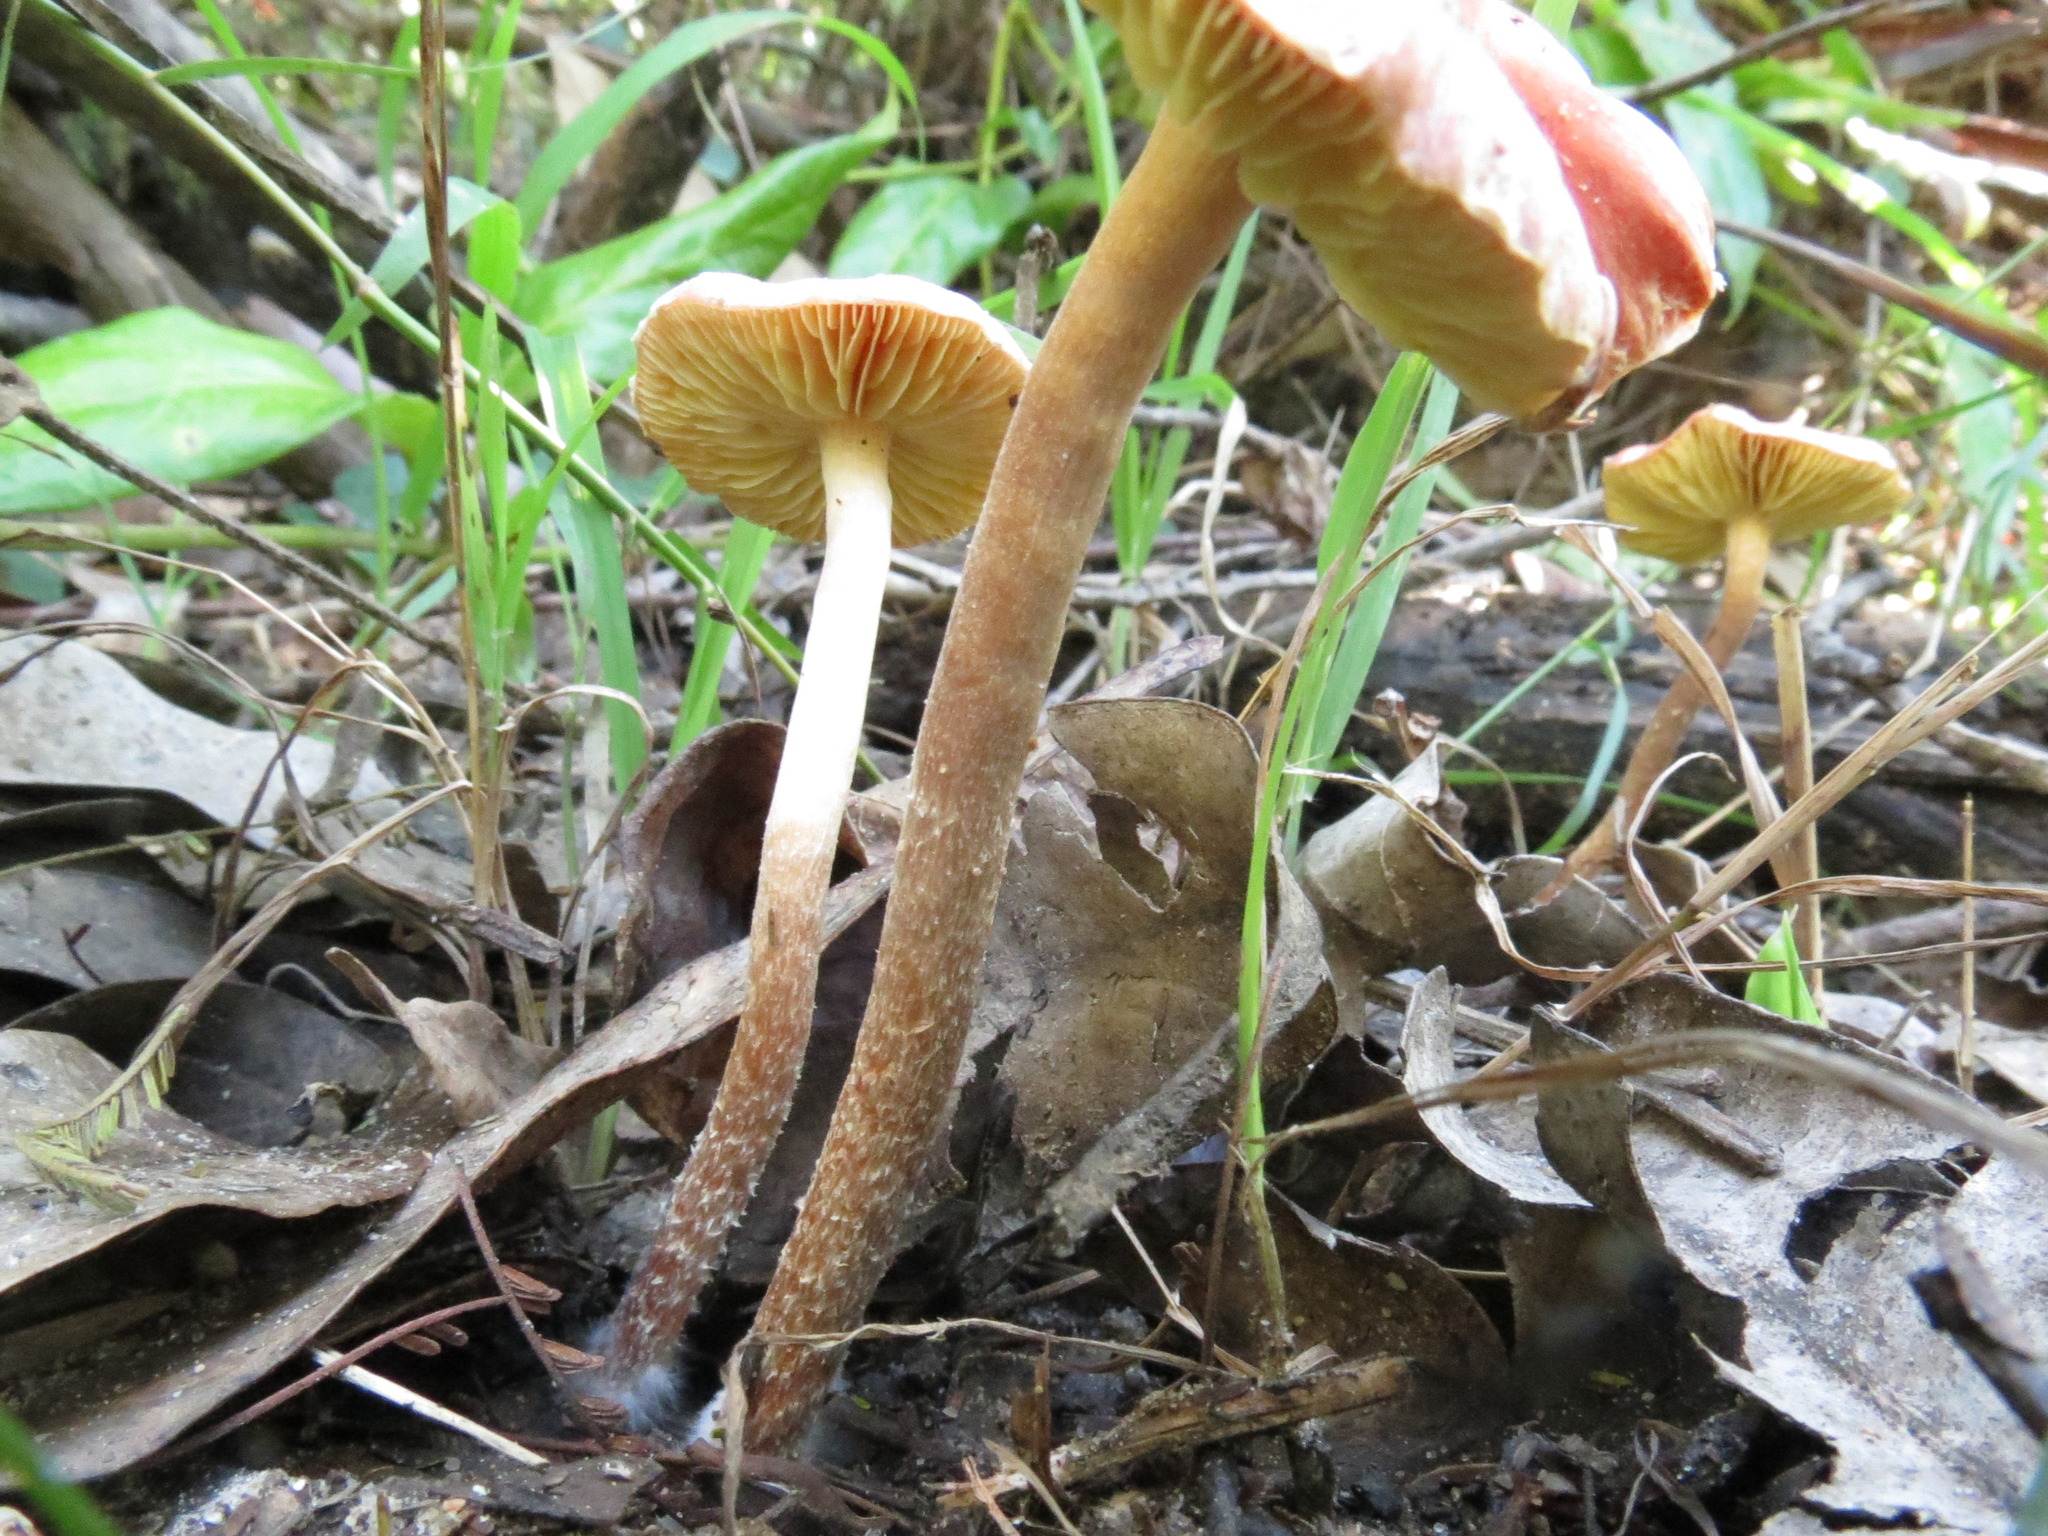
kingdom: Fungi
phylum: Basidiomycota
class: Agaricomycetes
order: Agaricales
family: Strophariaceae
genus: Leratiomyces
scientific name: Leratiomyces ceres
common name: Redlead roundhead
